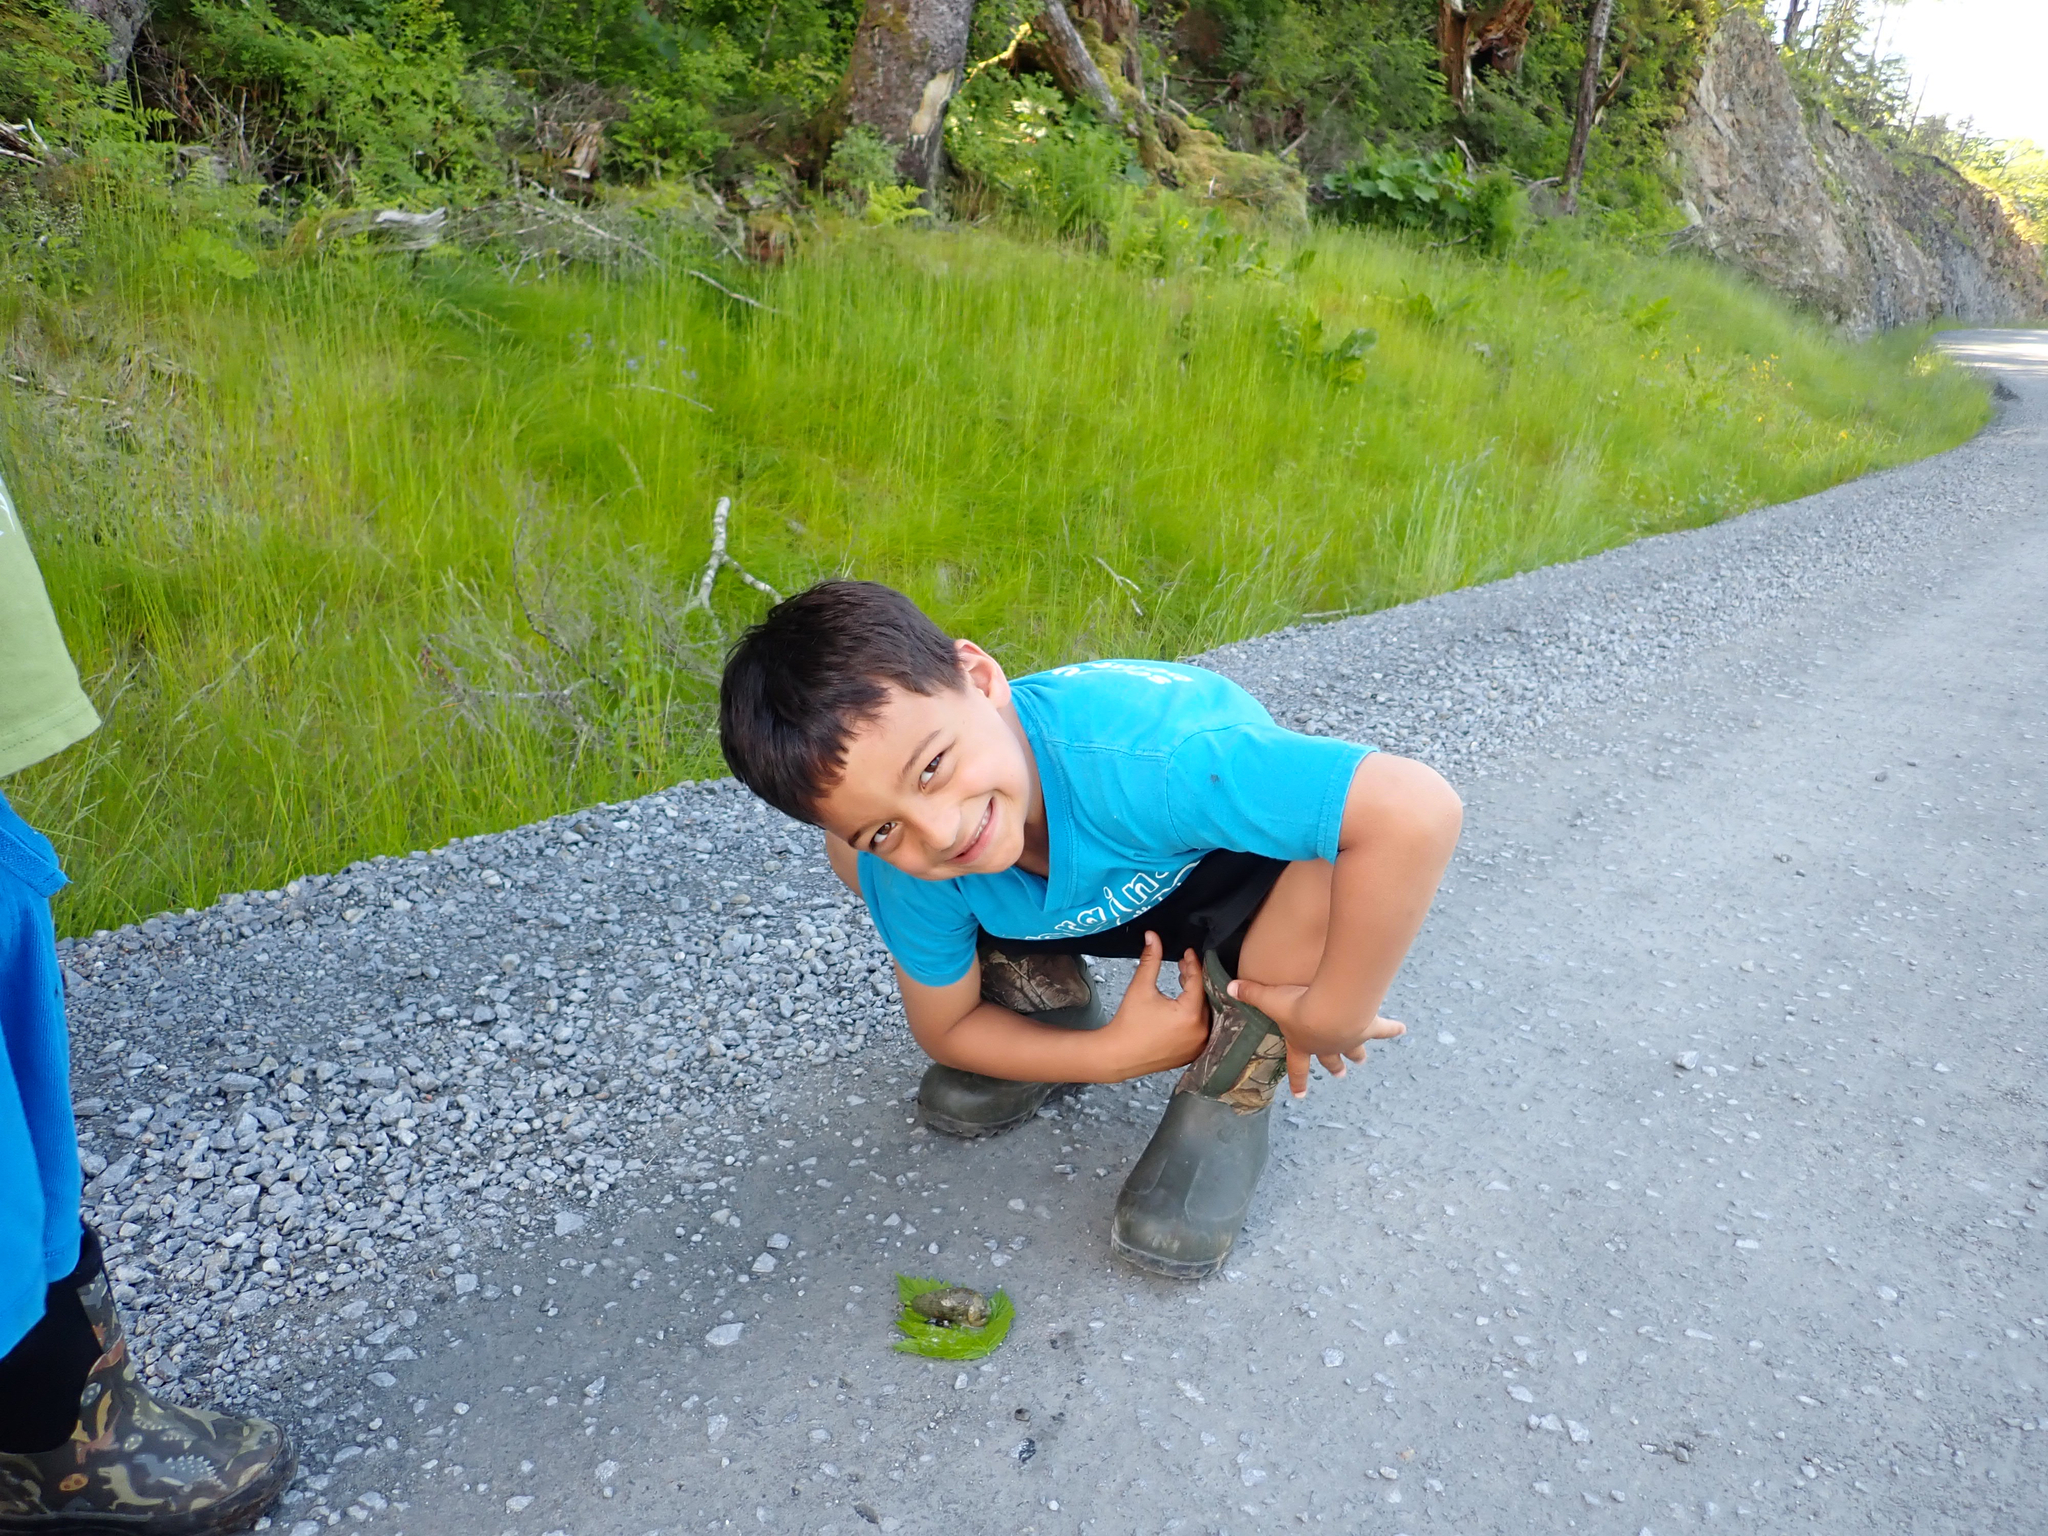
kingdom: Animalia
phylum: Mollusca
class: Gastropoda
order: Stylommatophora
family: Ariolimacidae
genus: Ariolimax
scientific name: Ariolimax columbianus
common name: Pacific banana slug
